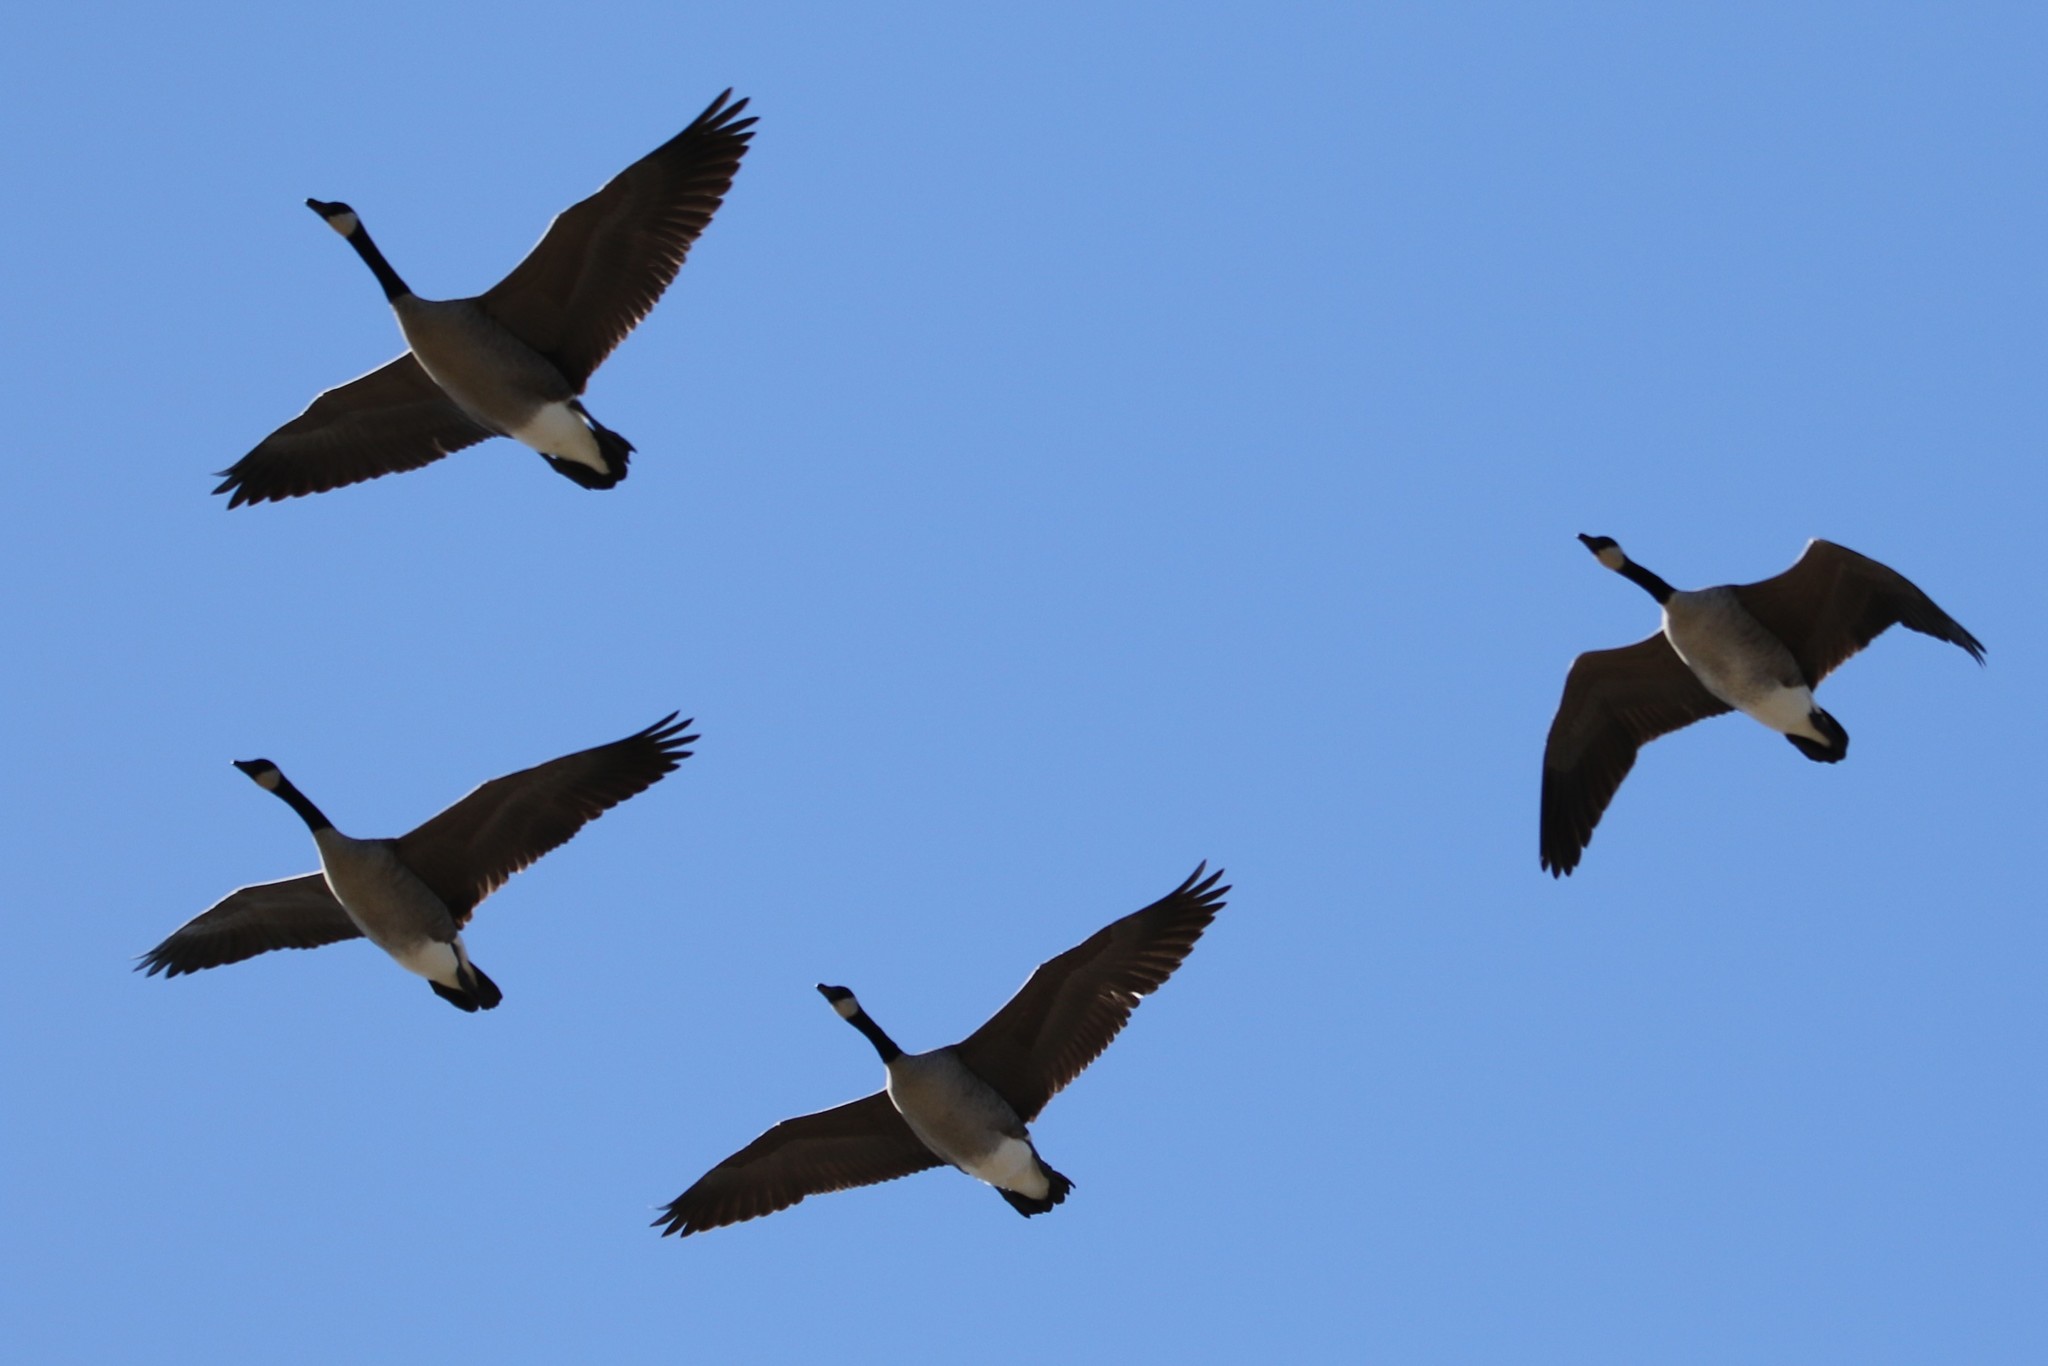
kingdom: Animalia
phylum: Chordata
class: Aves
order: Anseriformes
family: Anatidae
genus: Branta
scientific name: Branta canadensis
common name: Canada goose
